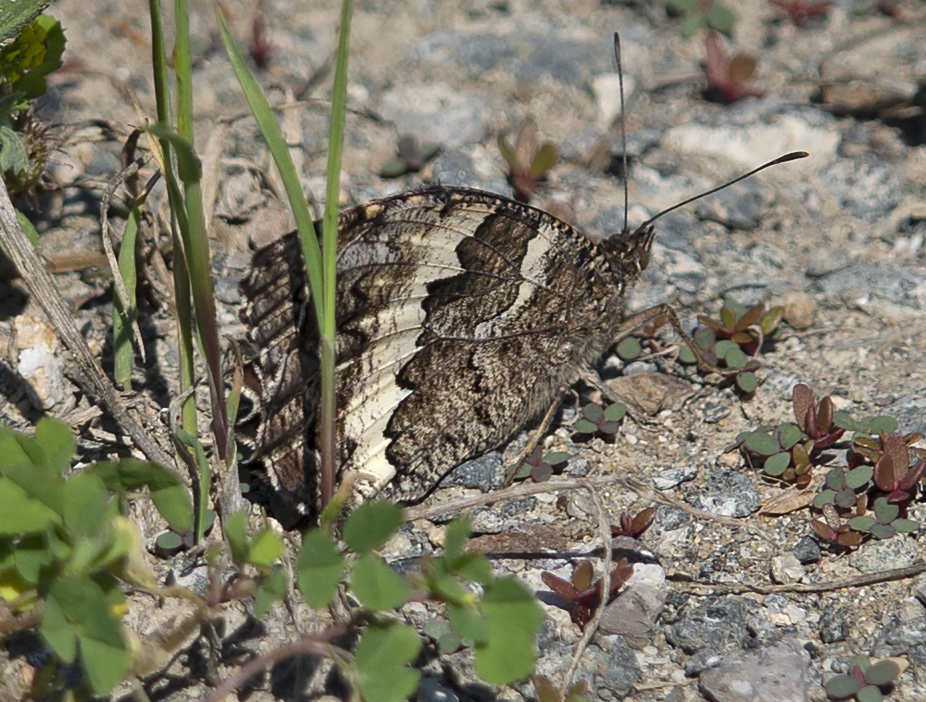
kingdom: Animalia
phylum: Arthropoda
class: Insecta
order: Lepidoptera
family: Lycaenidae
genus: Loweia
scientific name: Loweia tityrus
